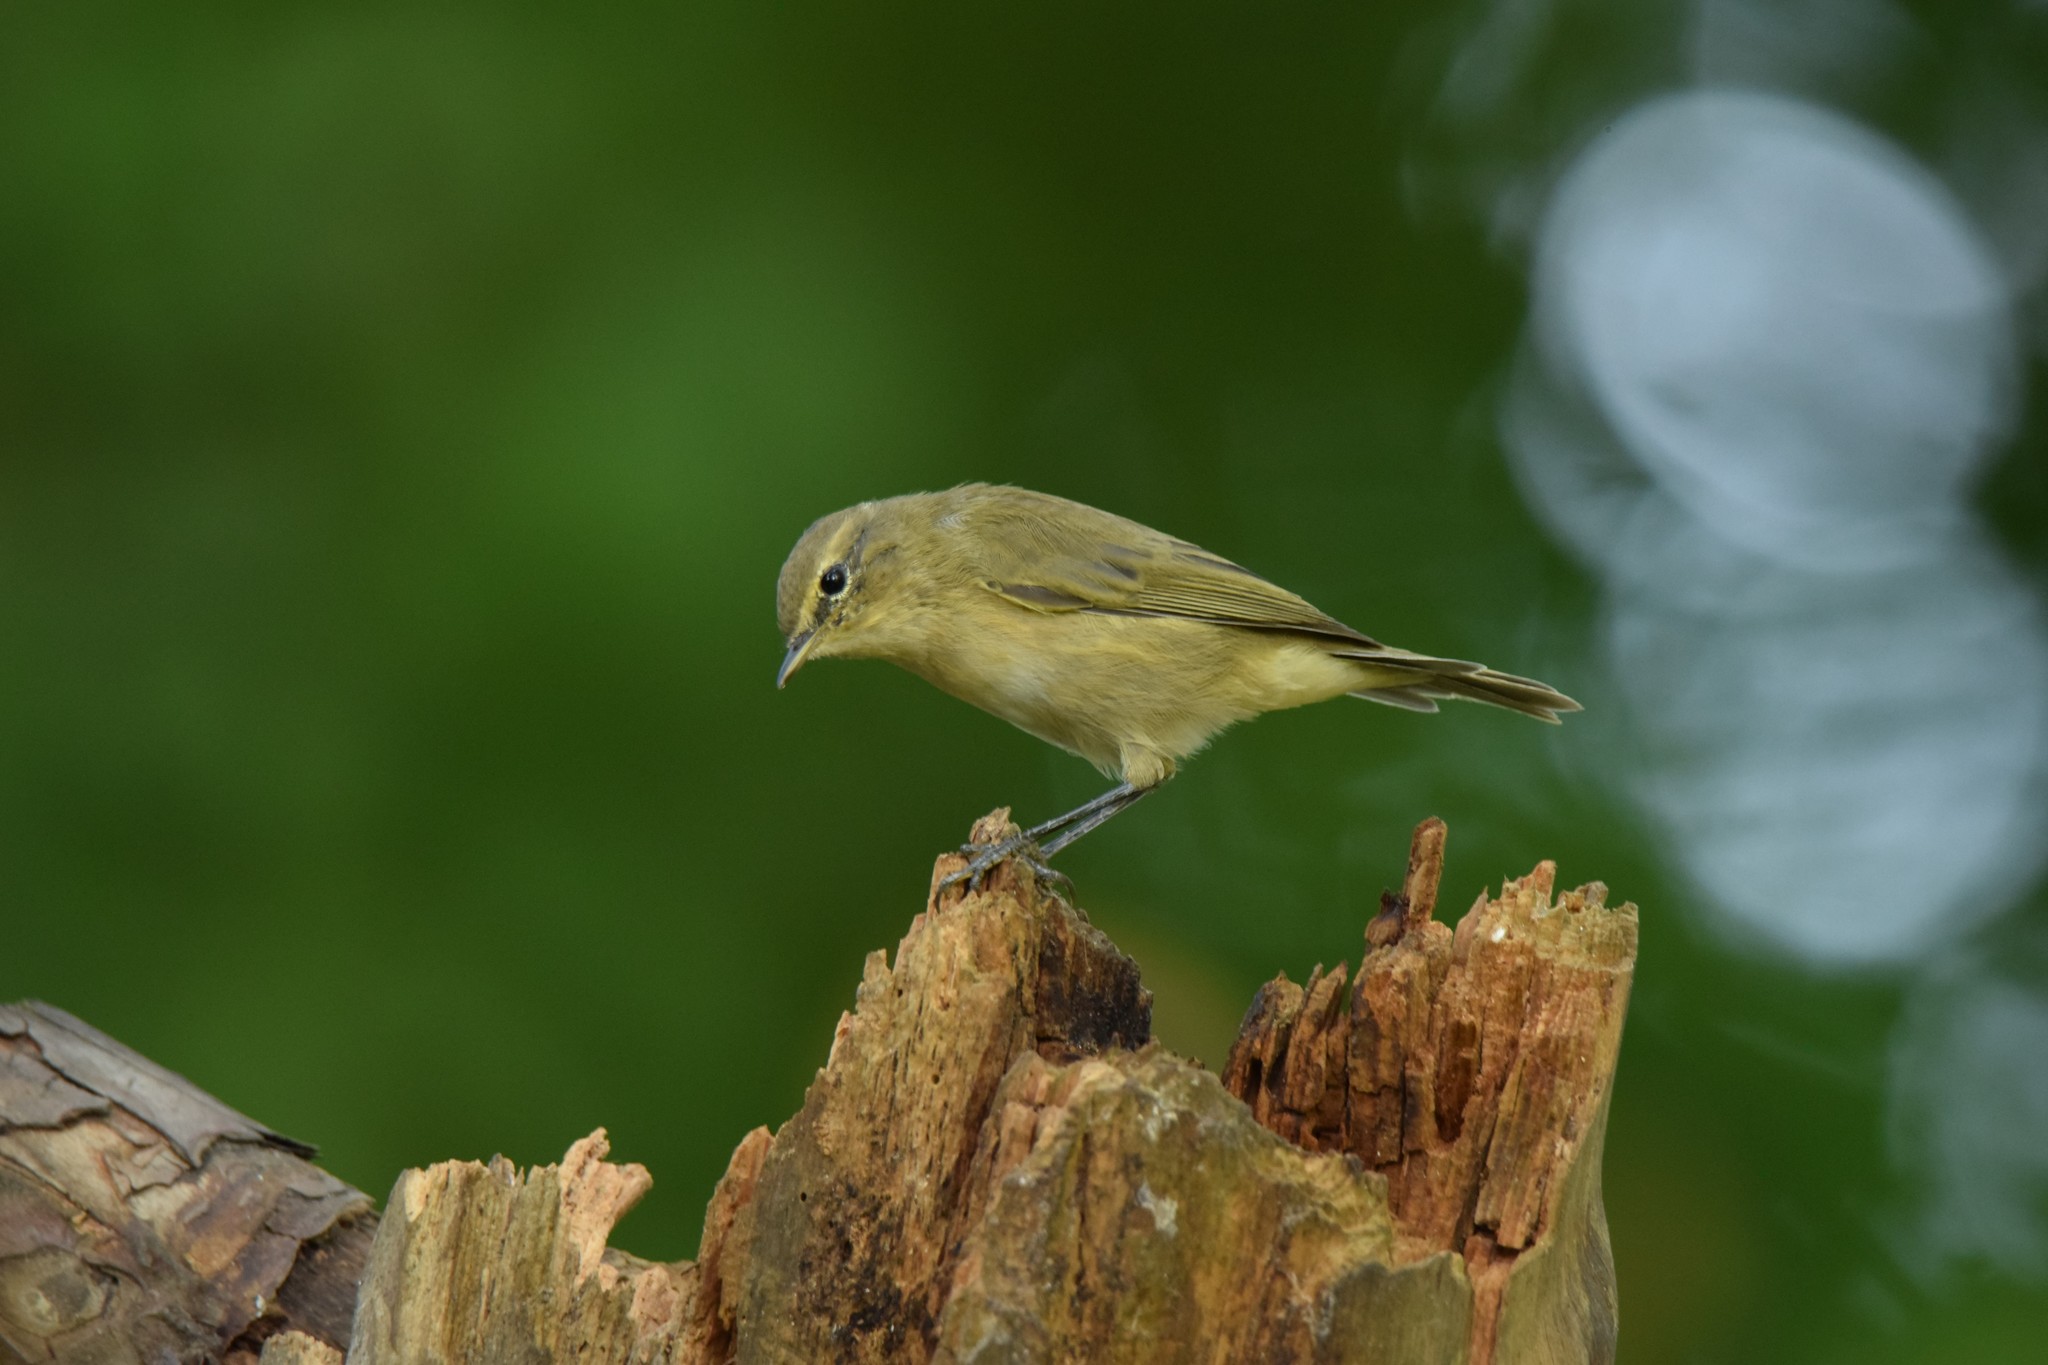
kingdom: Animalia
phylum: Chordata
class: Aves
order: Passeriformes
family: Phylloscopidae
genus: Phylloscopus
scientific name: Phylloscopus collybita
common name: Common chiffchaff
